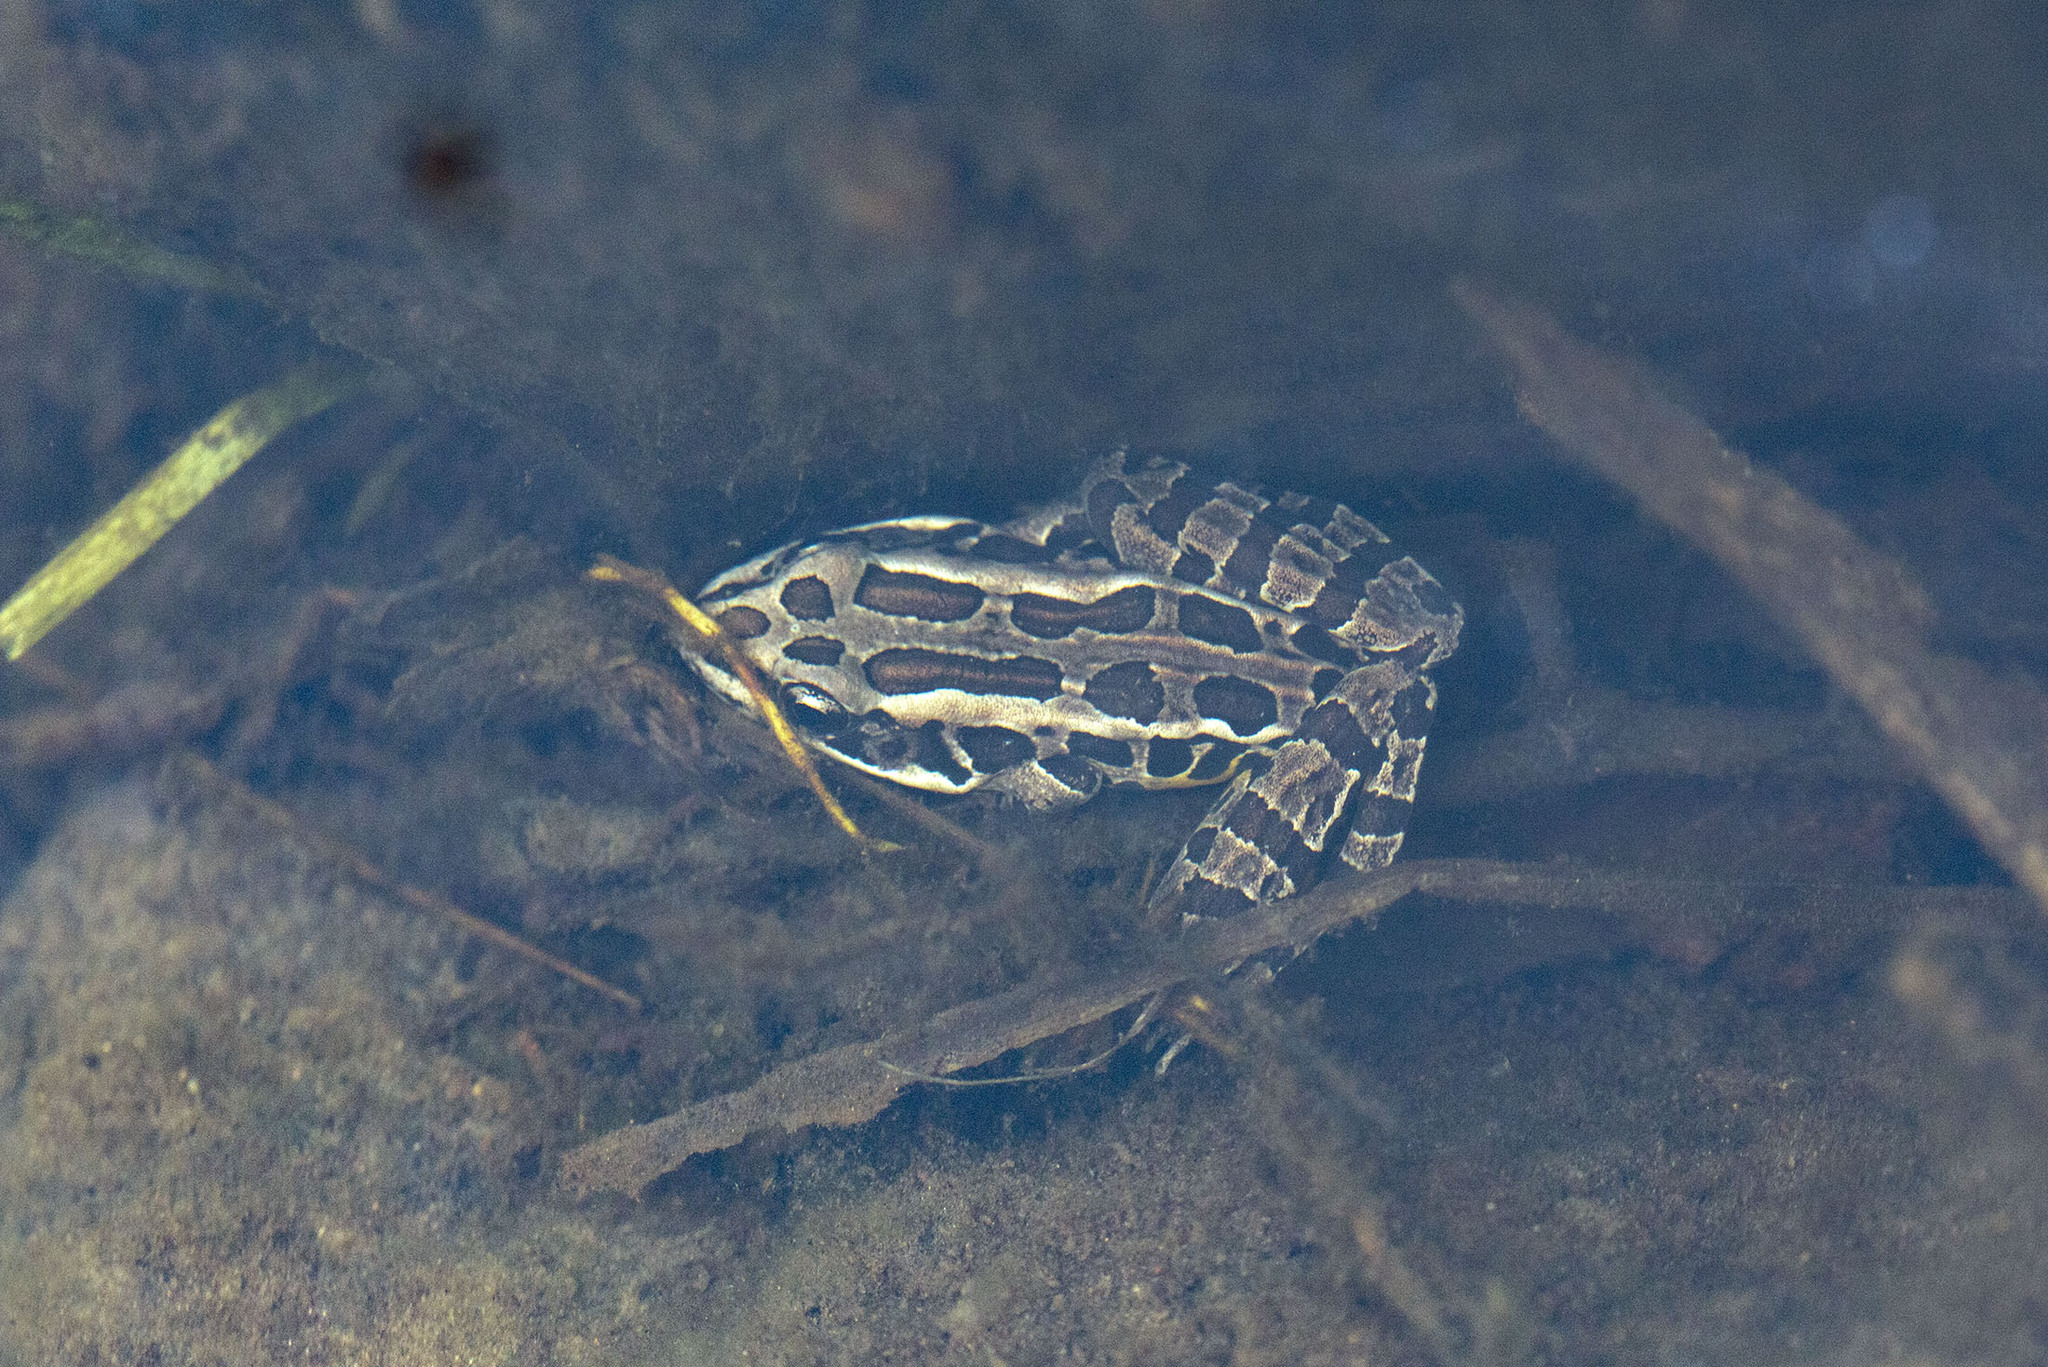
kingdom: Animalia
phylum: Chordata
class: Amphibia
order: Anura
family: Ranidae
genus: Lithobates
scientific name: Lithobates palustris
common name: Pickerel frog
